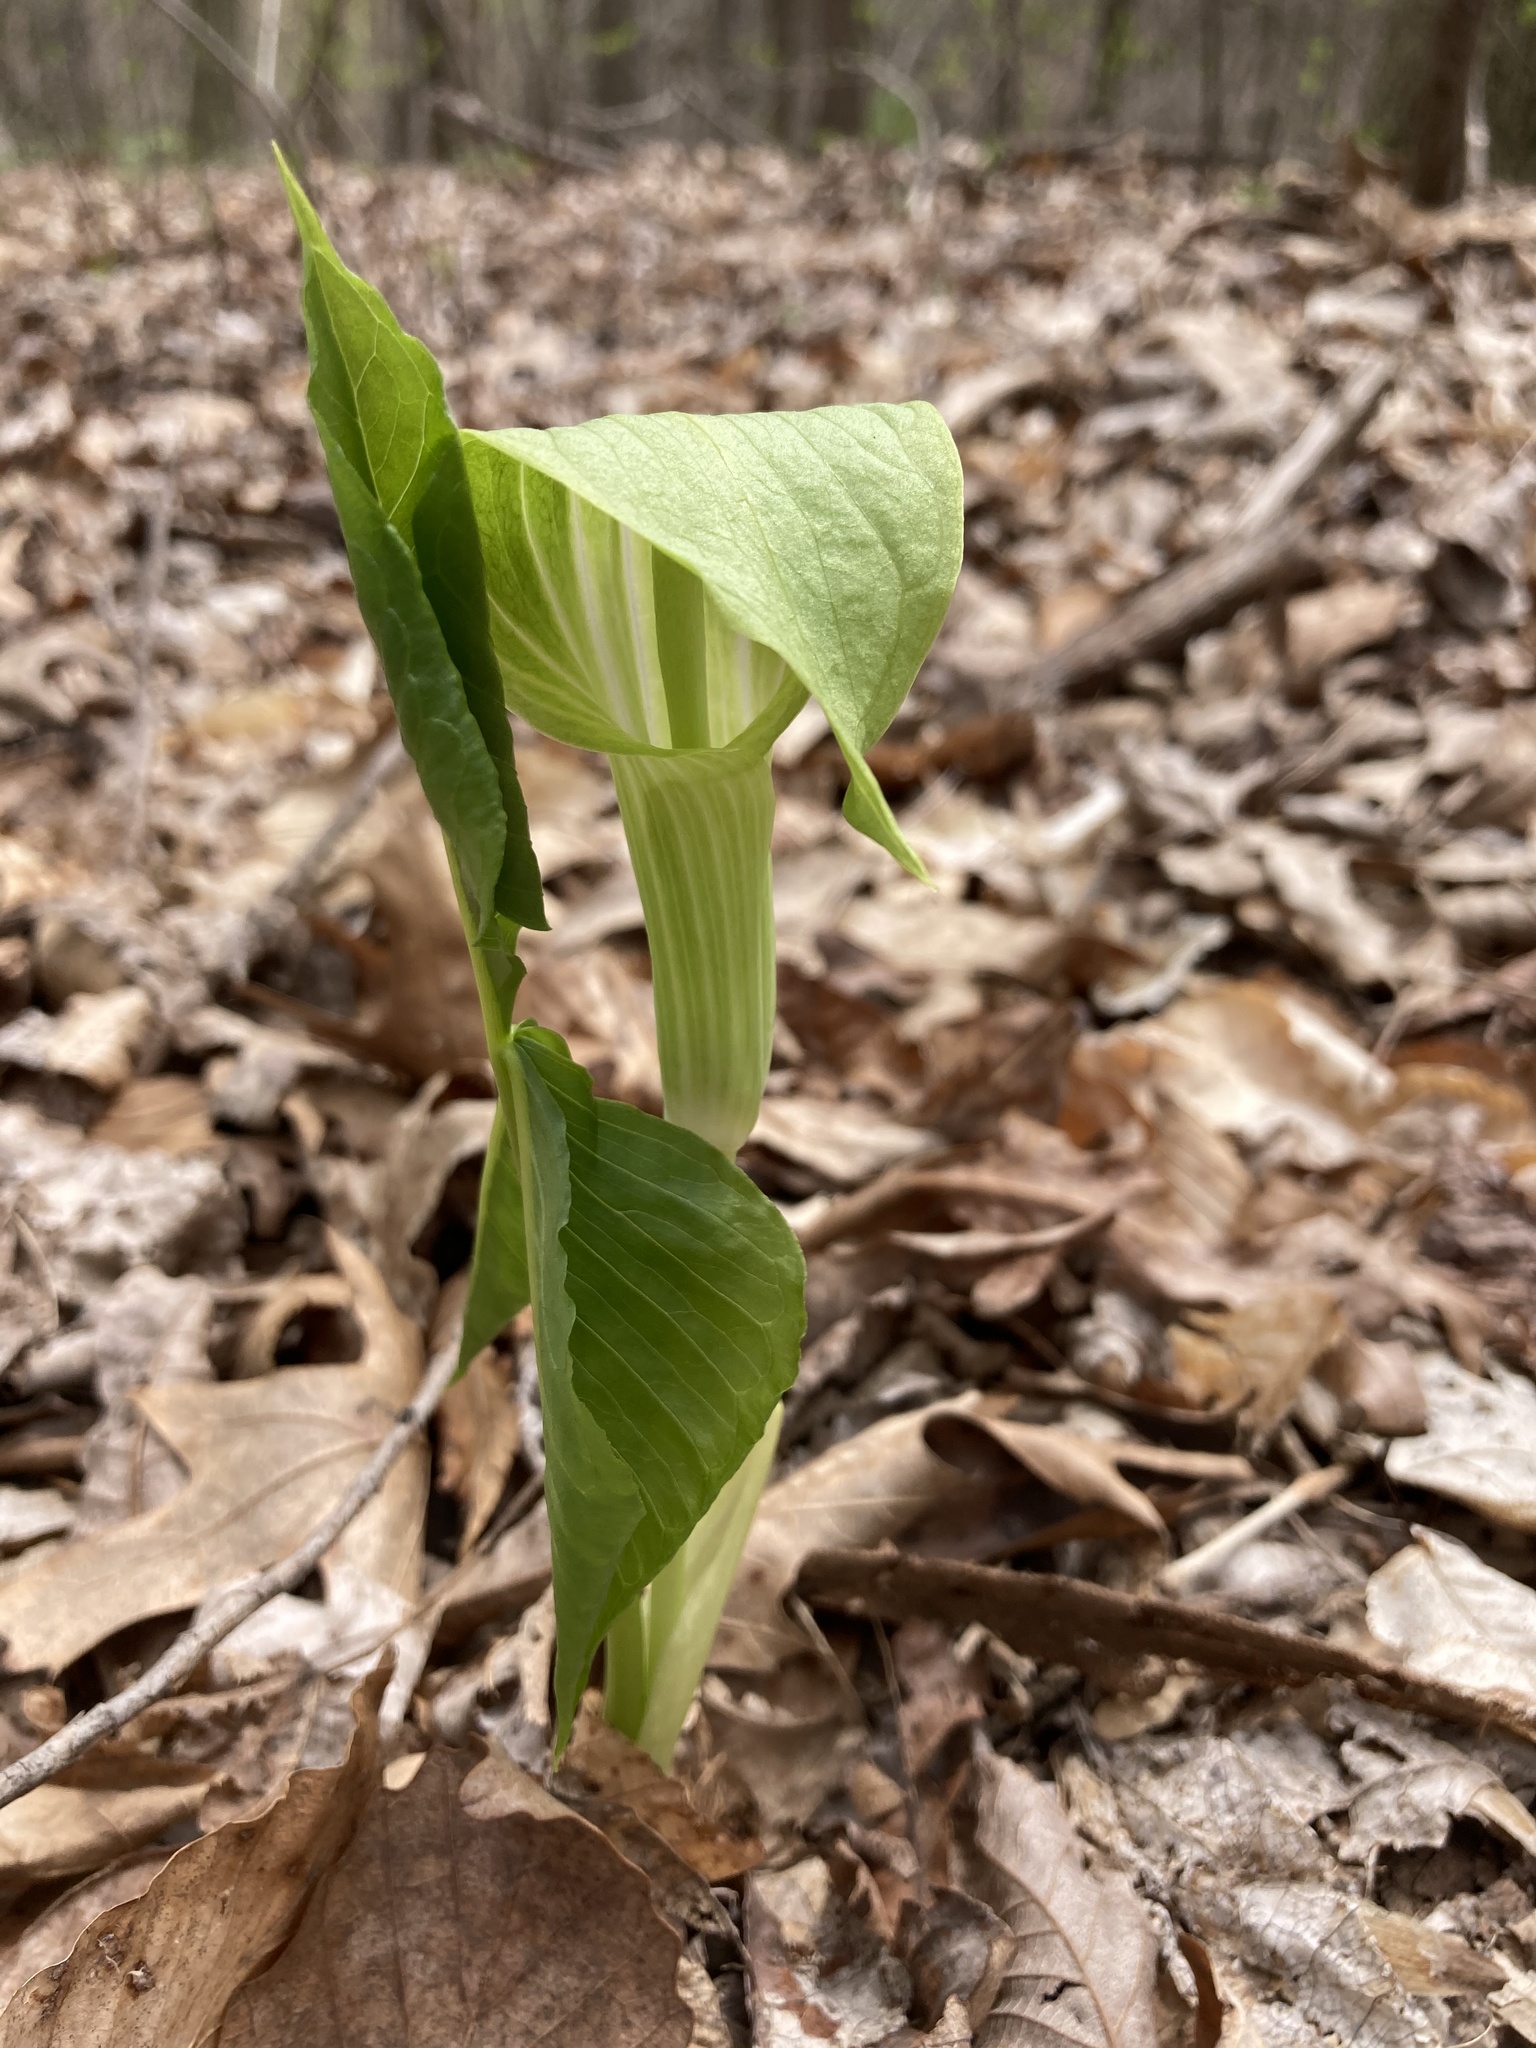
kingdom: Plantae
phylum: Tracheophyta
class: Liliopsida
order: Alismatales
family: Araceae
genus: Arisaema
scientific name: Arisaema triphyllum
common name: Jack-in-the-pulpit
